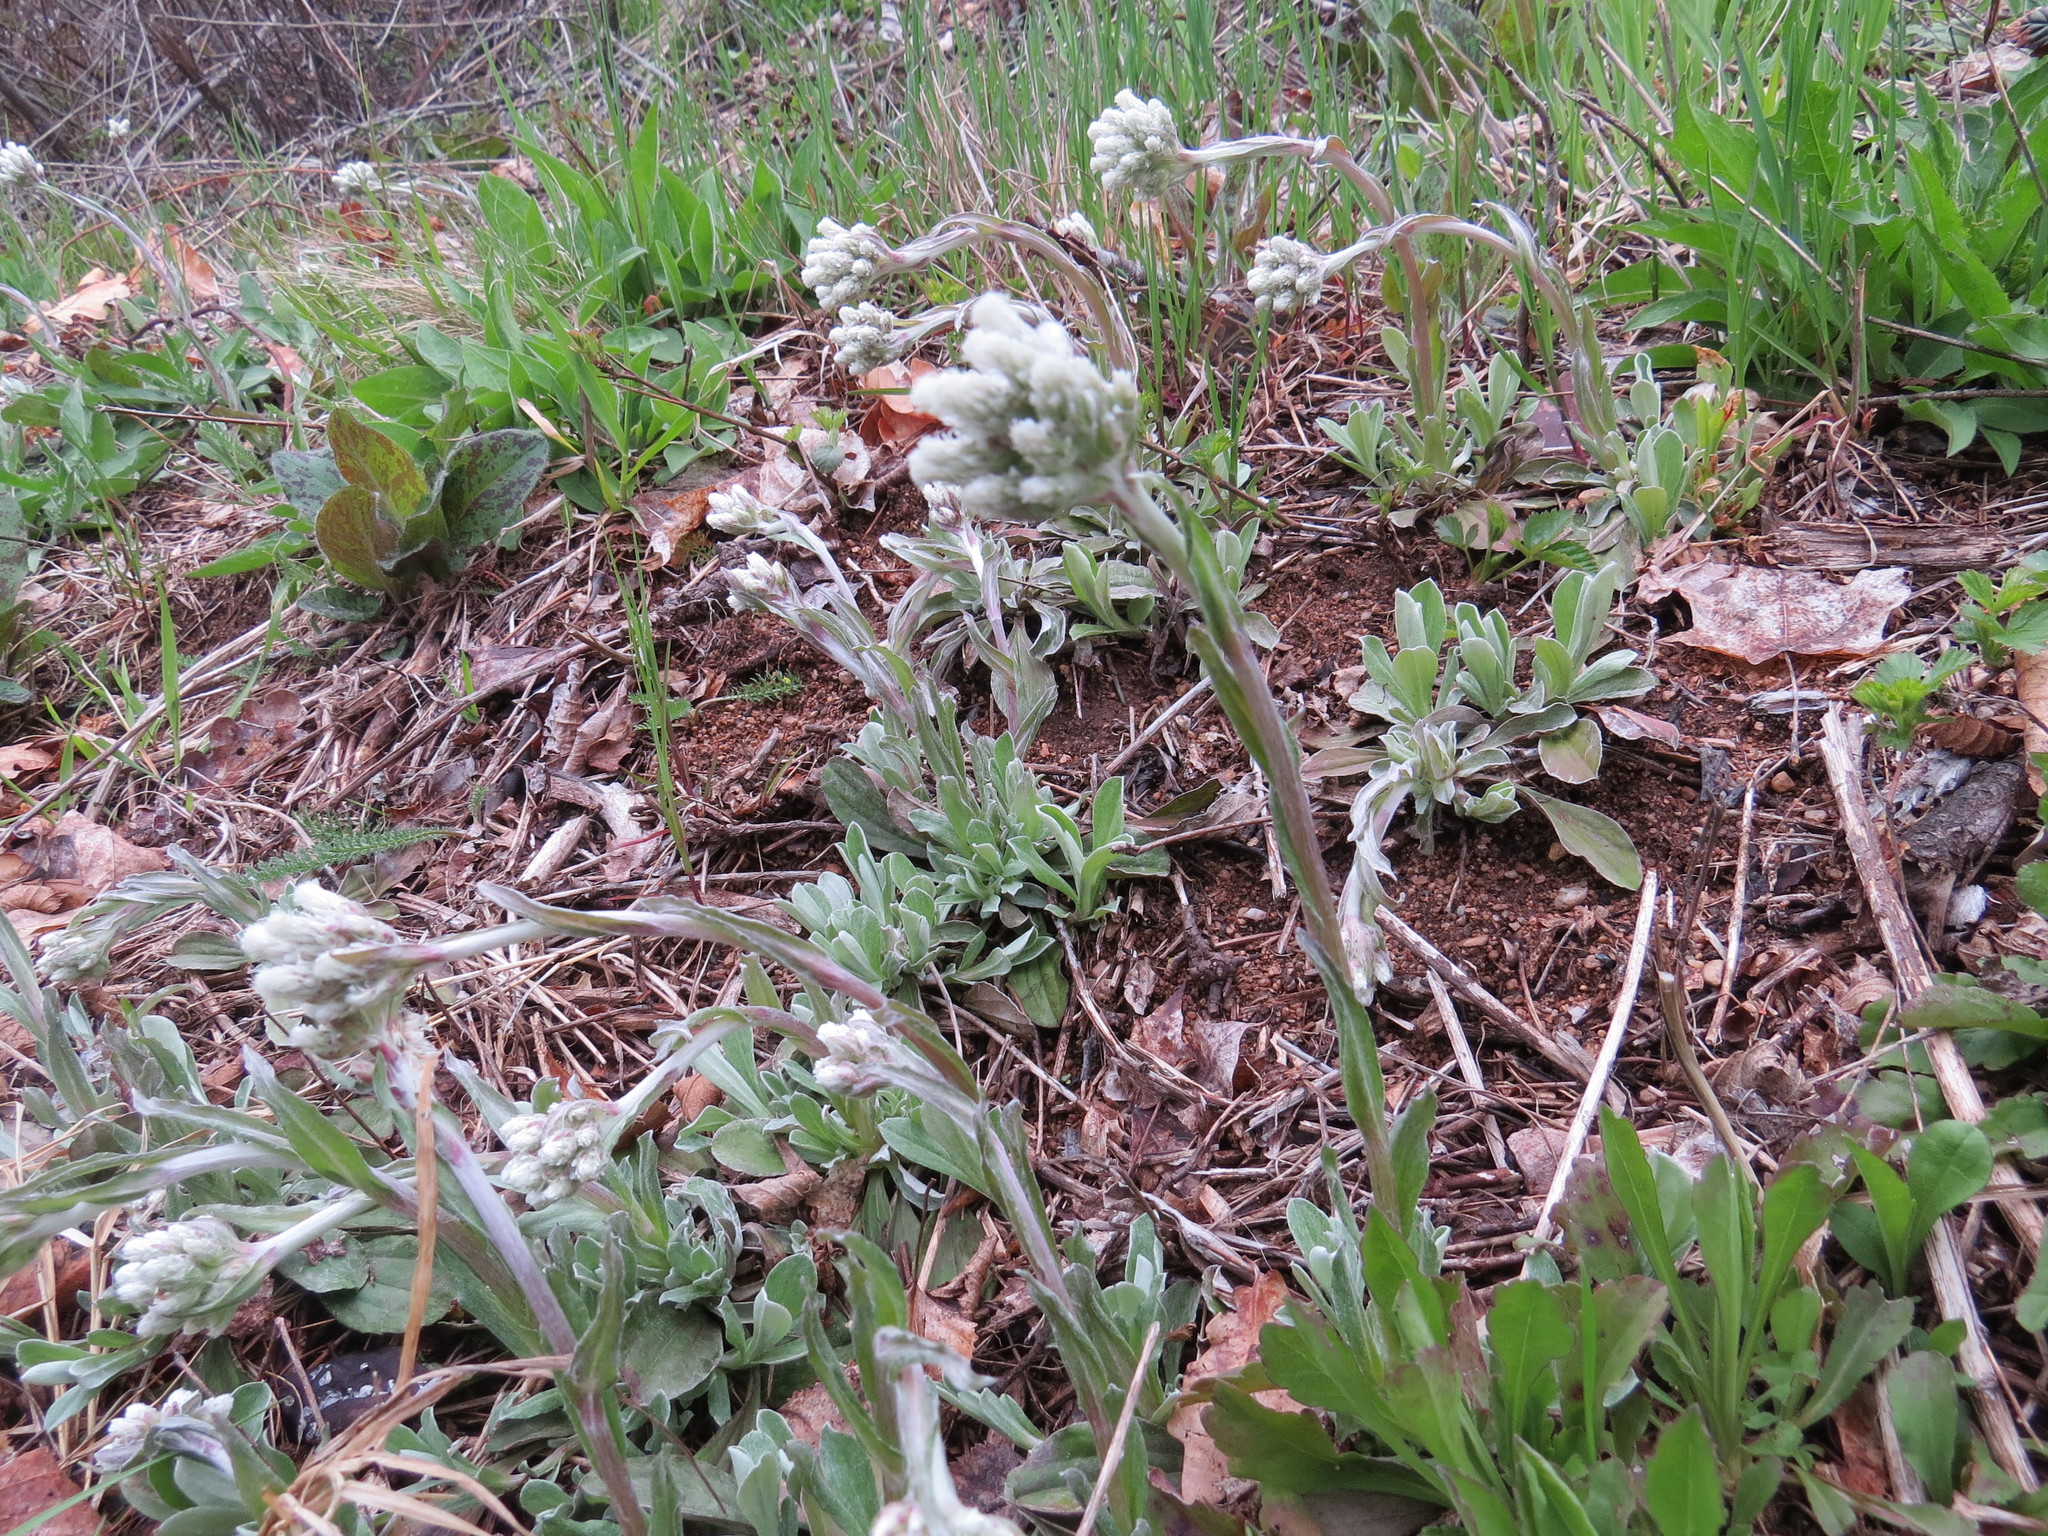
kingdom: Plantae
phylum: Tracheophyta
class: Magnoliopsida
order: Asterales
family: Asteraceae
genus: Antennaria
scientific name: Antennaria howellii
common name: Howell's pussytoes
